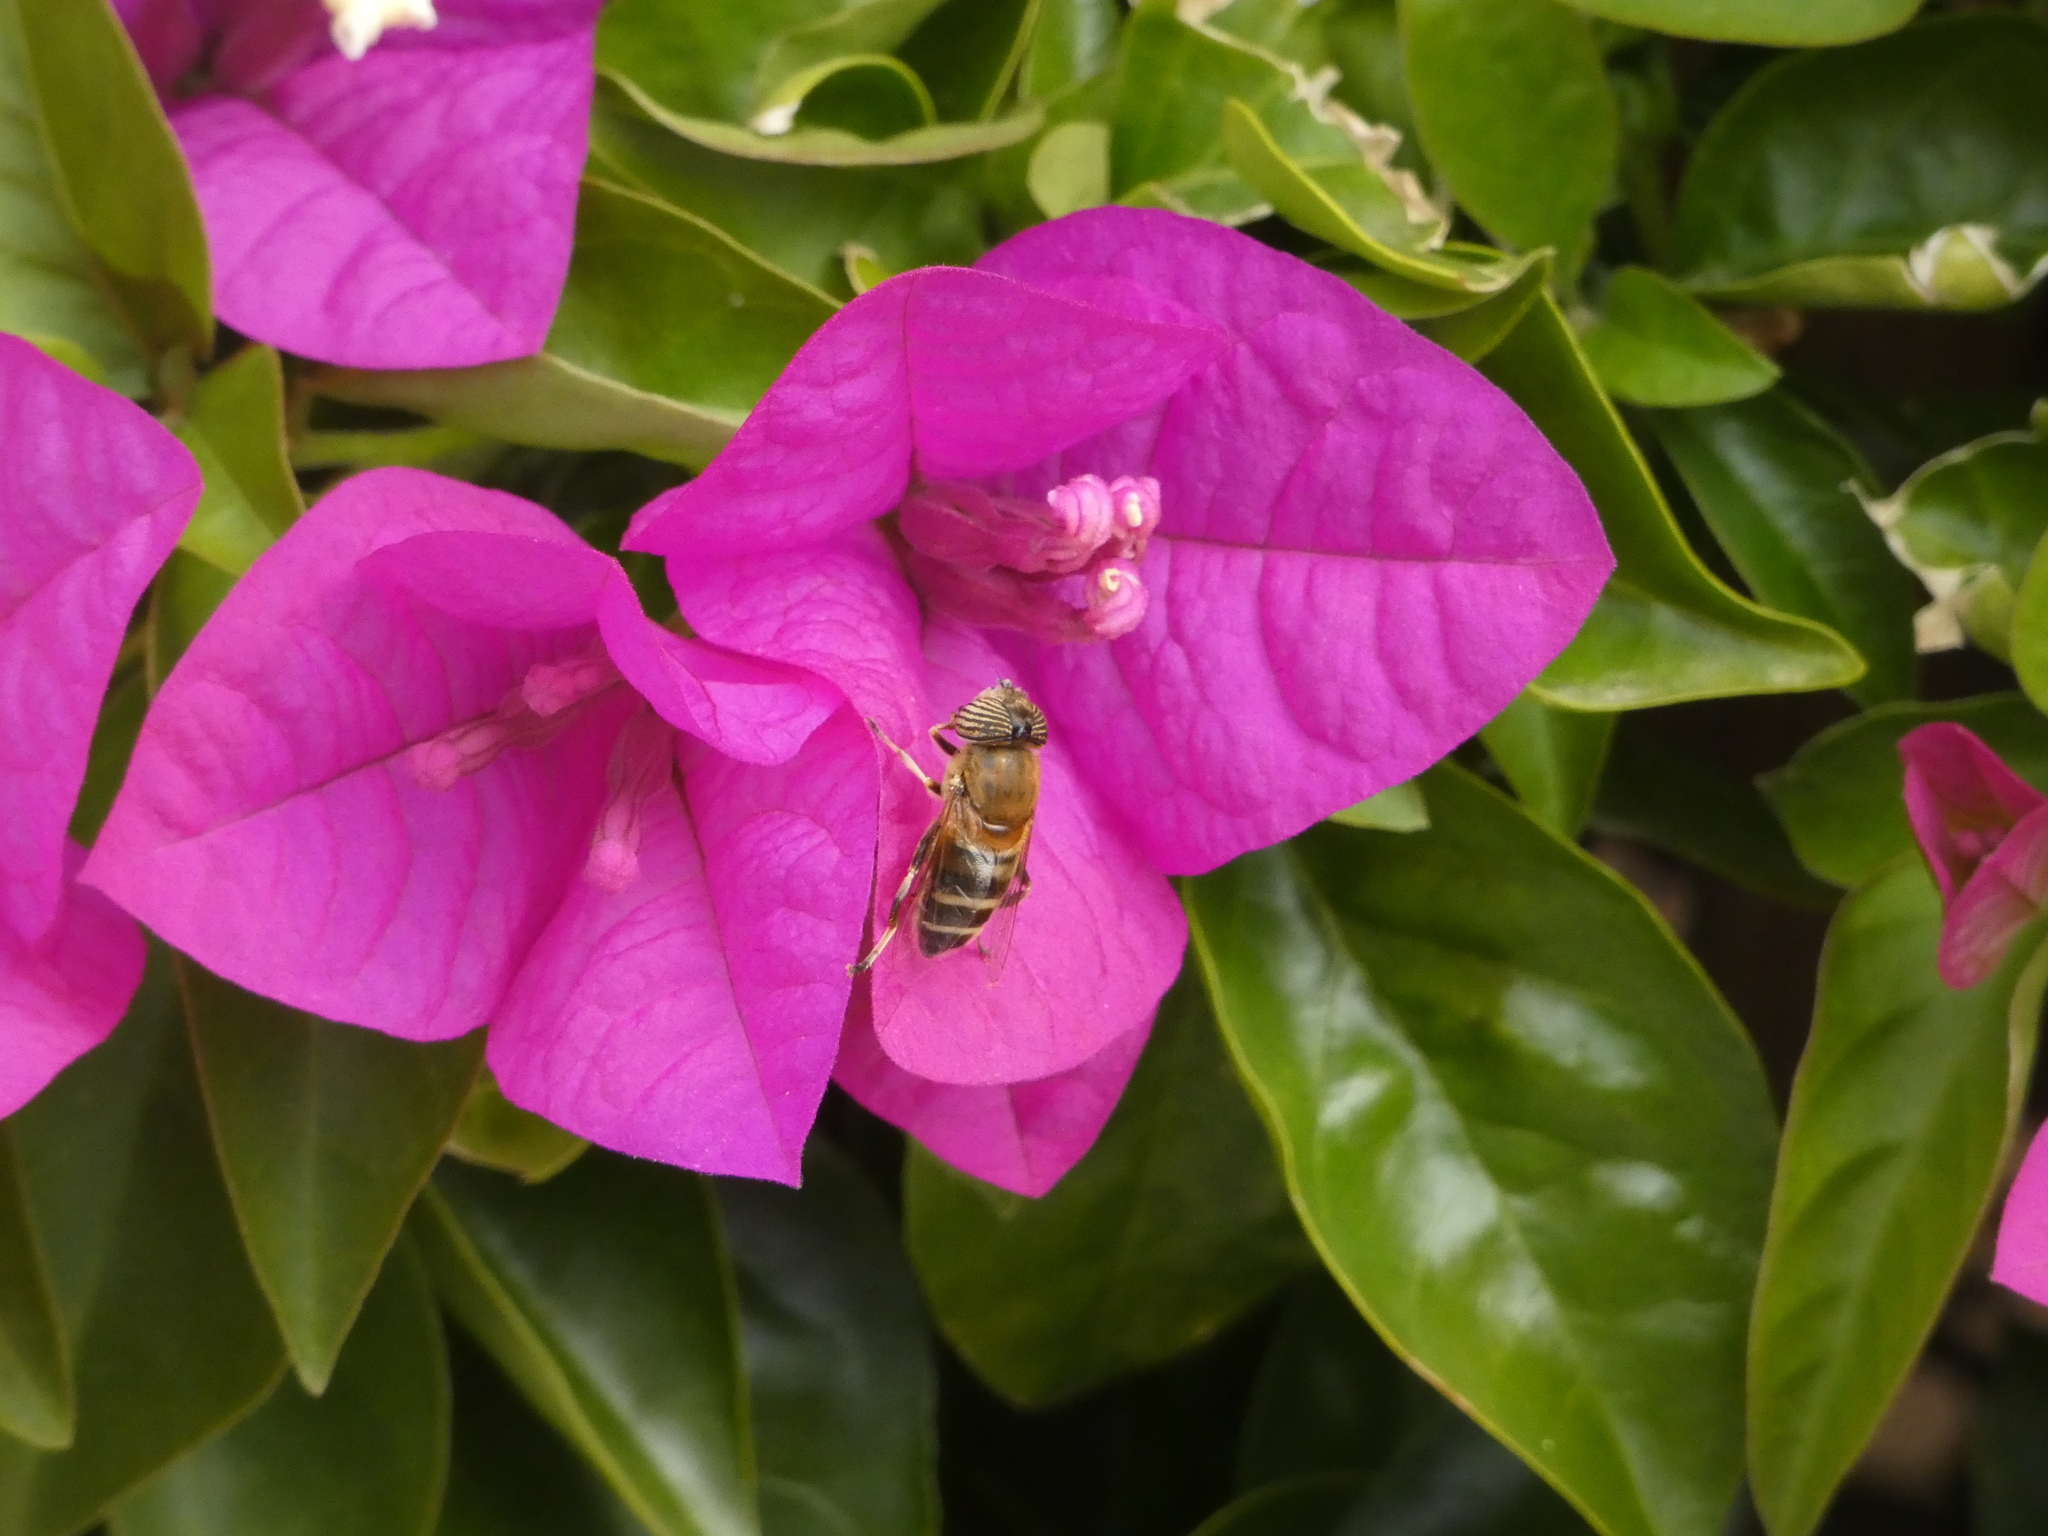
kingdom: Animalia
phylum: Arthropoda
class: Insecta
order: Diptera
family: Syrphidae
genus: Eristalinus
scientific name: Eristalinus taeniops
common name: Syrphid fly
